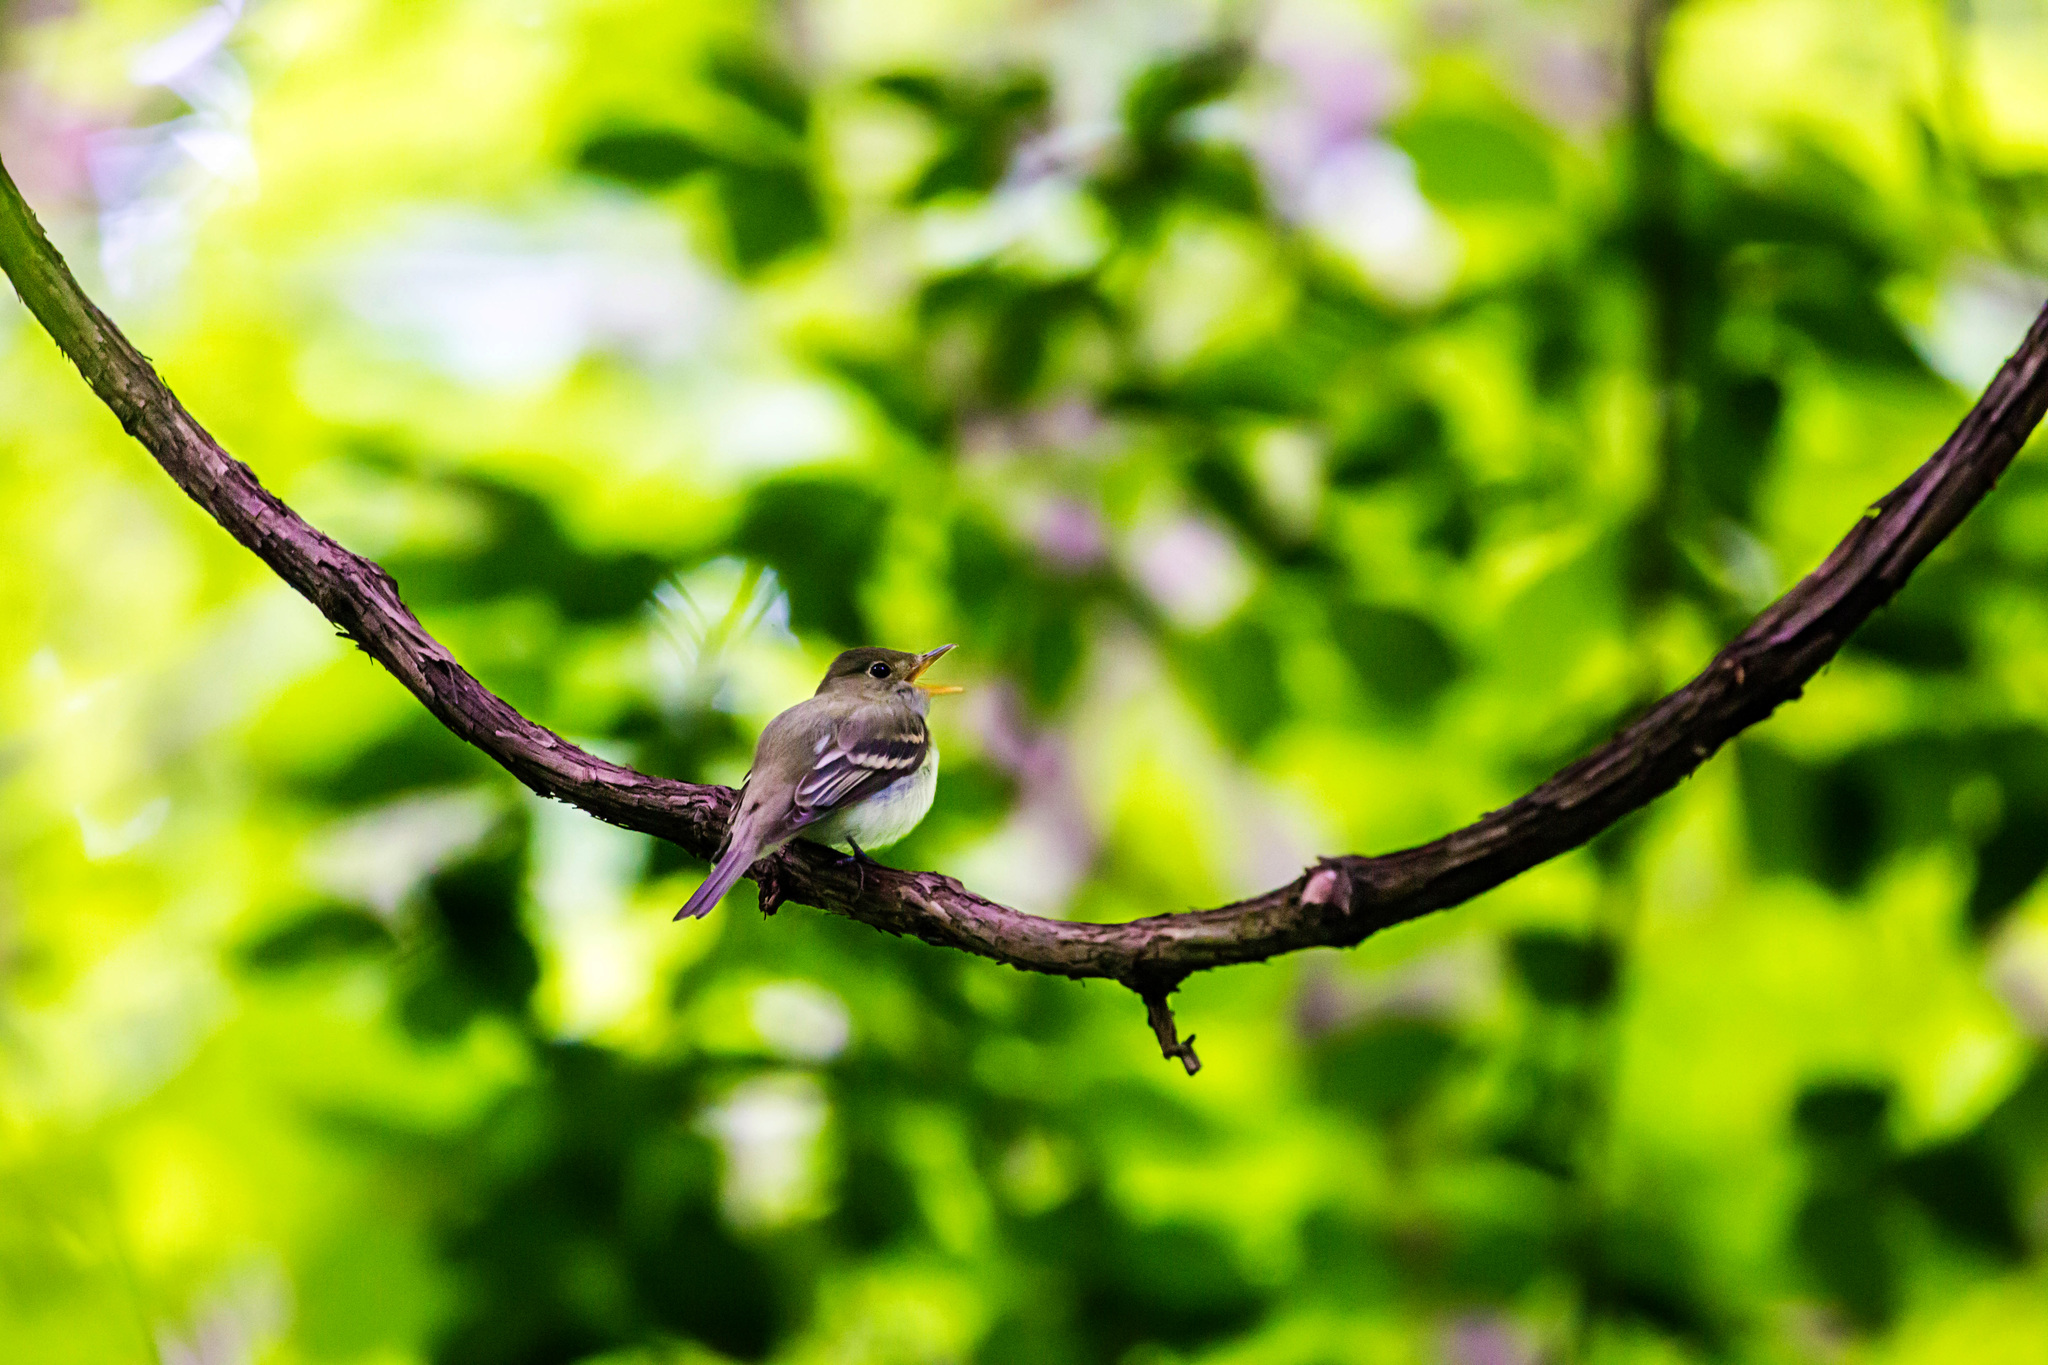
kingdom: Animalia
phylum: Chordata
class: Aves
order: Passeriformes
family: Tyrannidae
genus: Empidonax
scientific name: Empidonax virescens
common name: Acadian flycatcher
